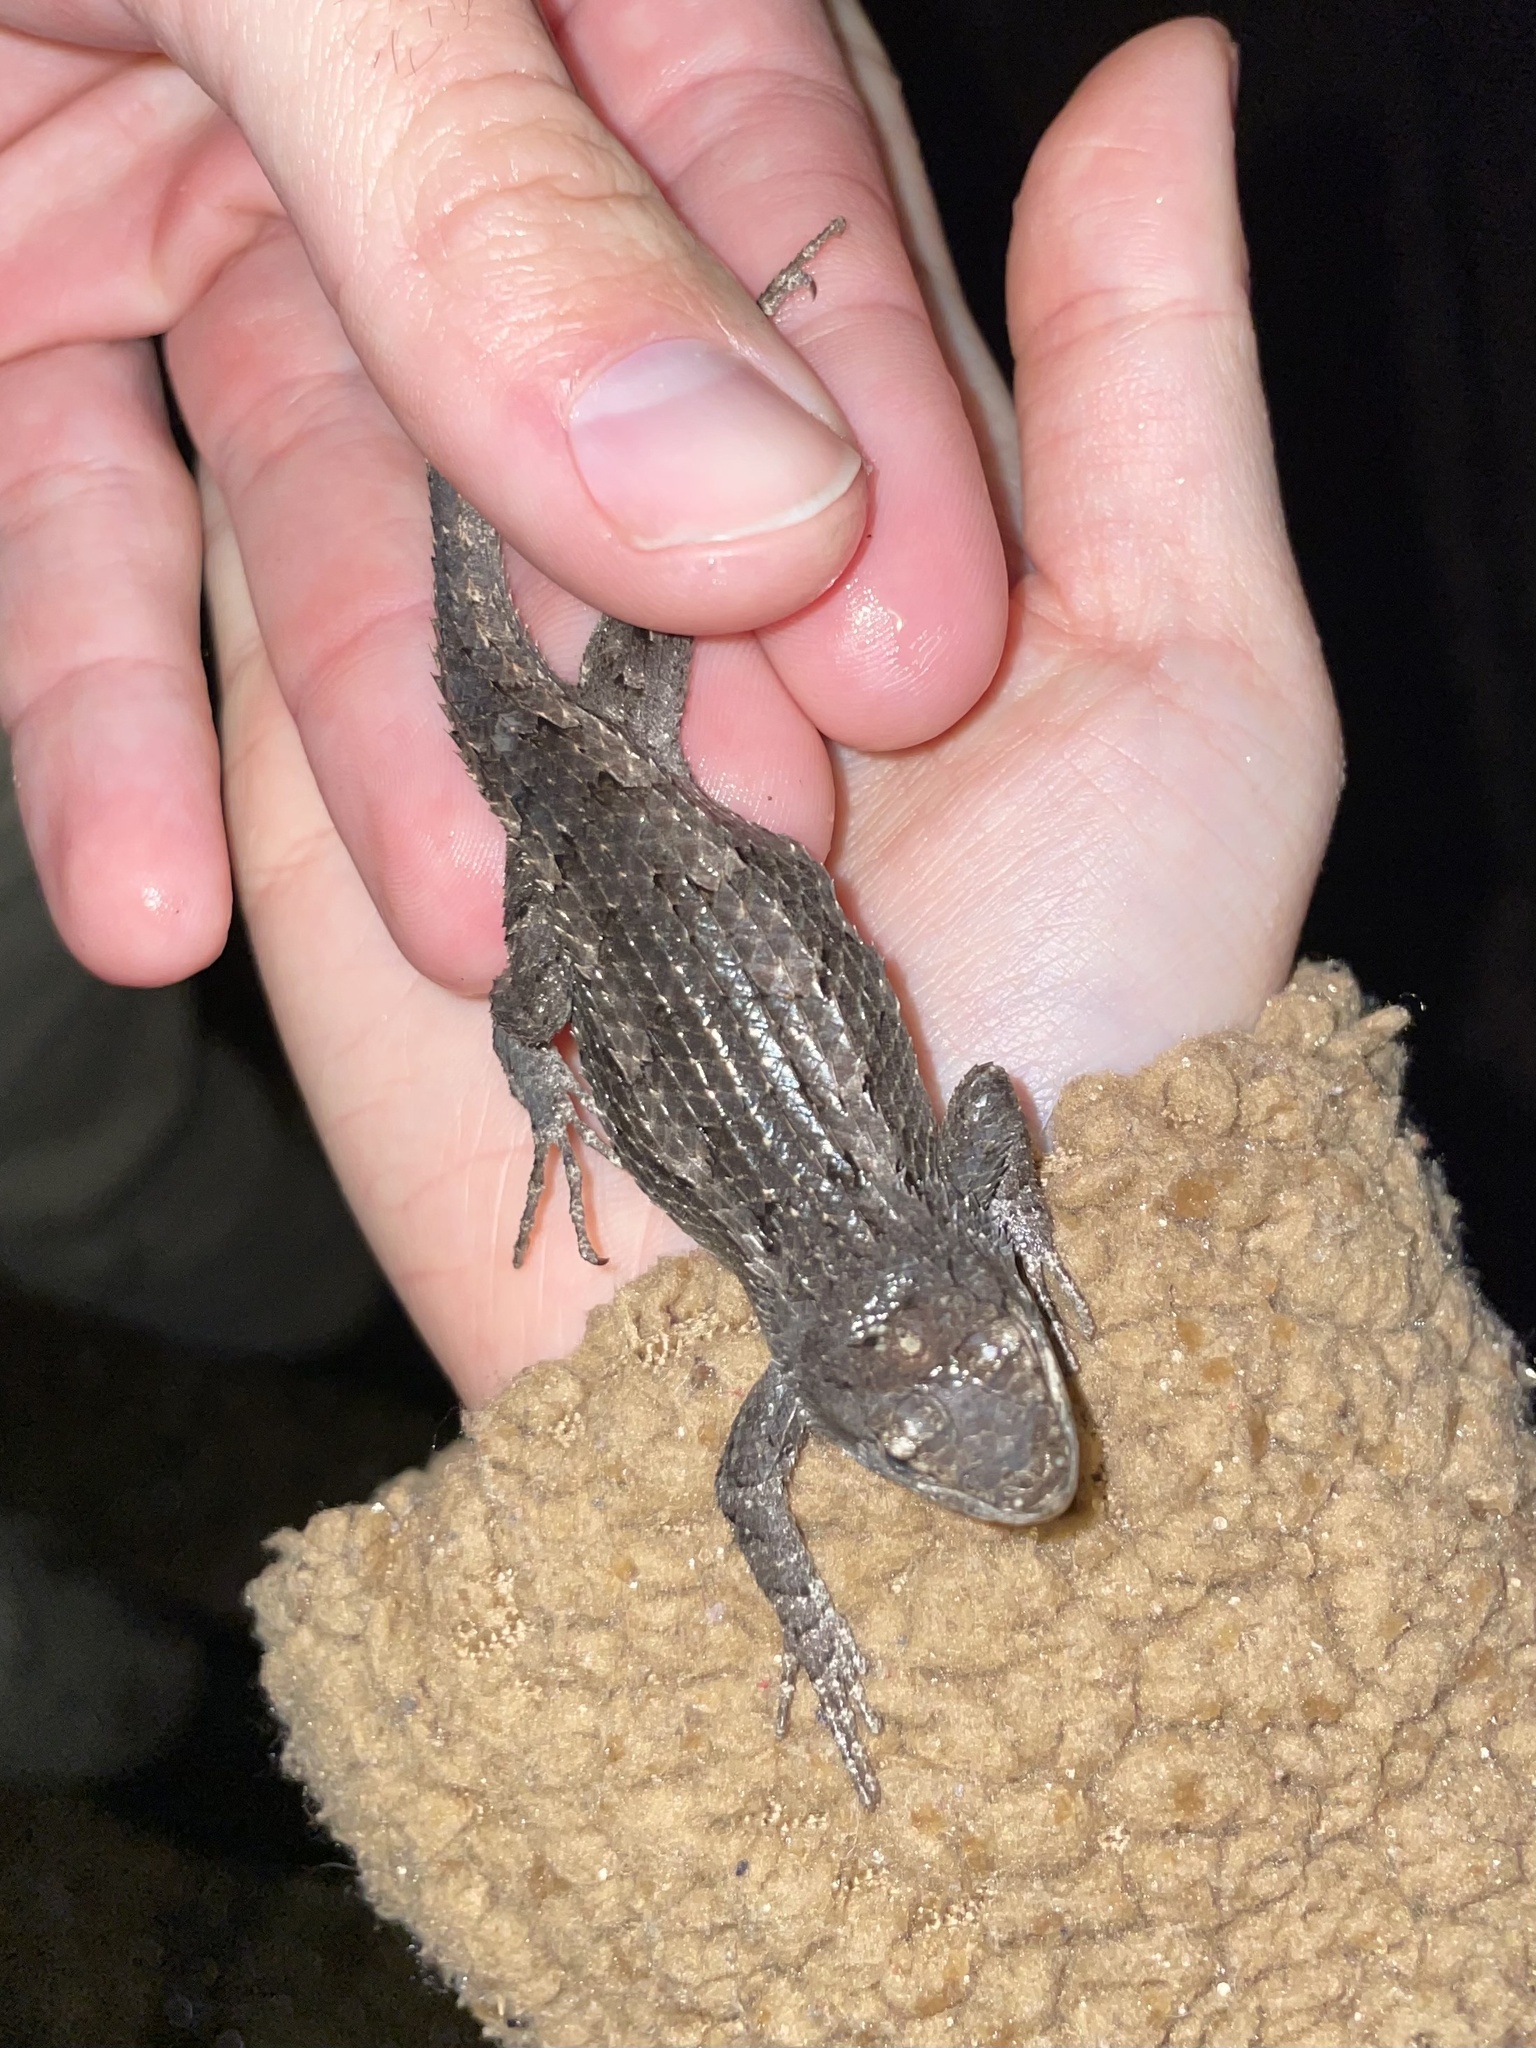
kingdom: Animalia
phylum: Chordata
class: Squamata
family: Phrynosomatidae
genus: Sceloporus
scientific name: Sceloporus olivaceus
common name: Texas spiny lizard
